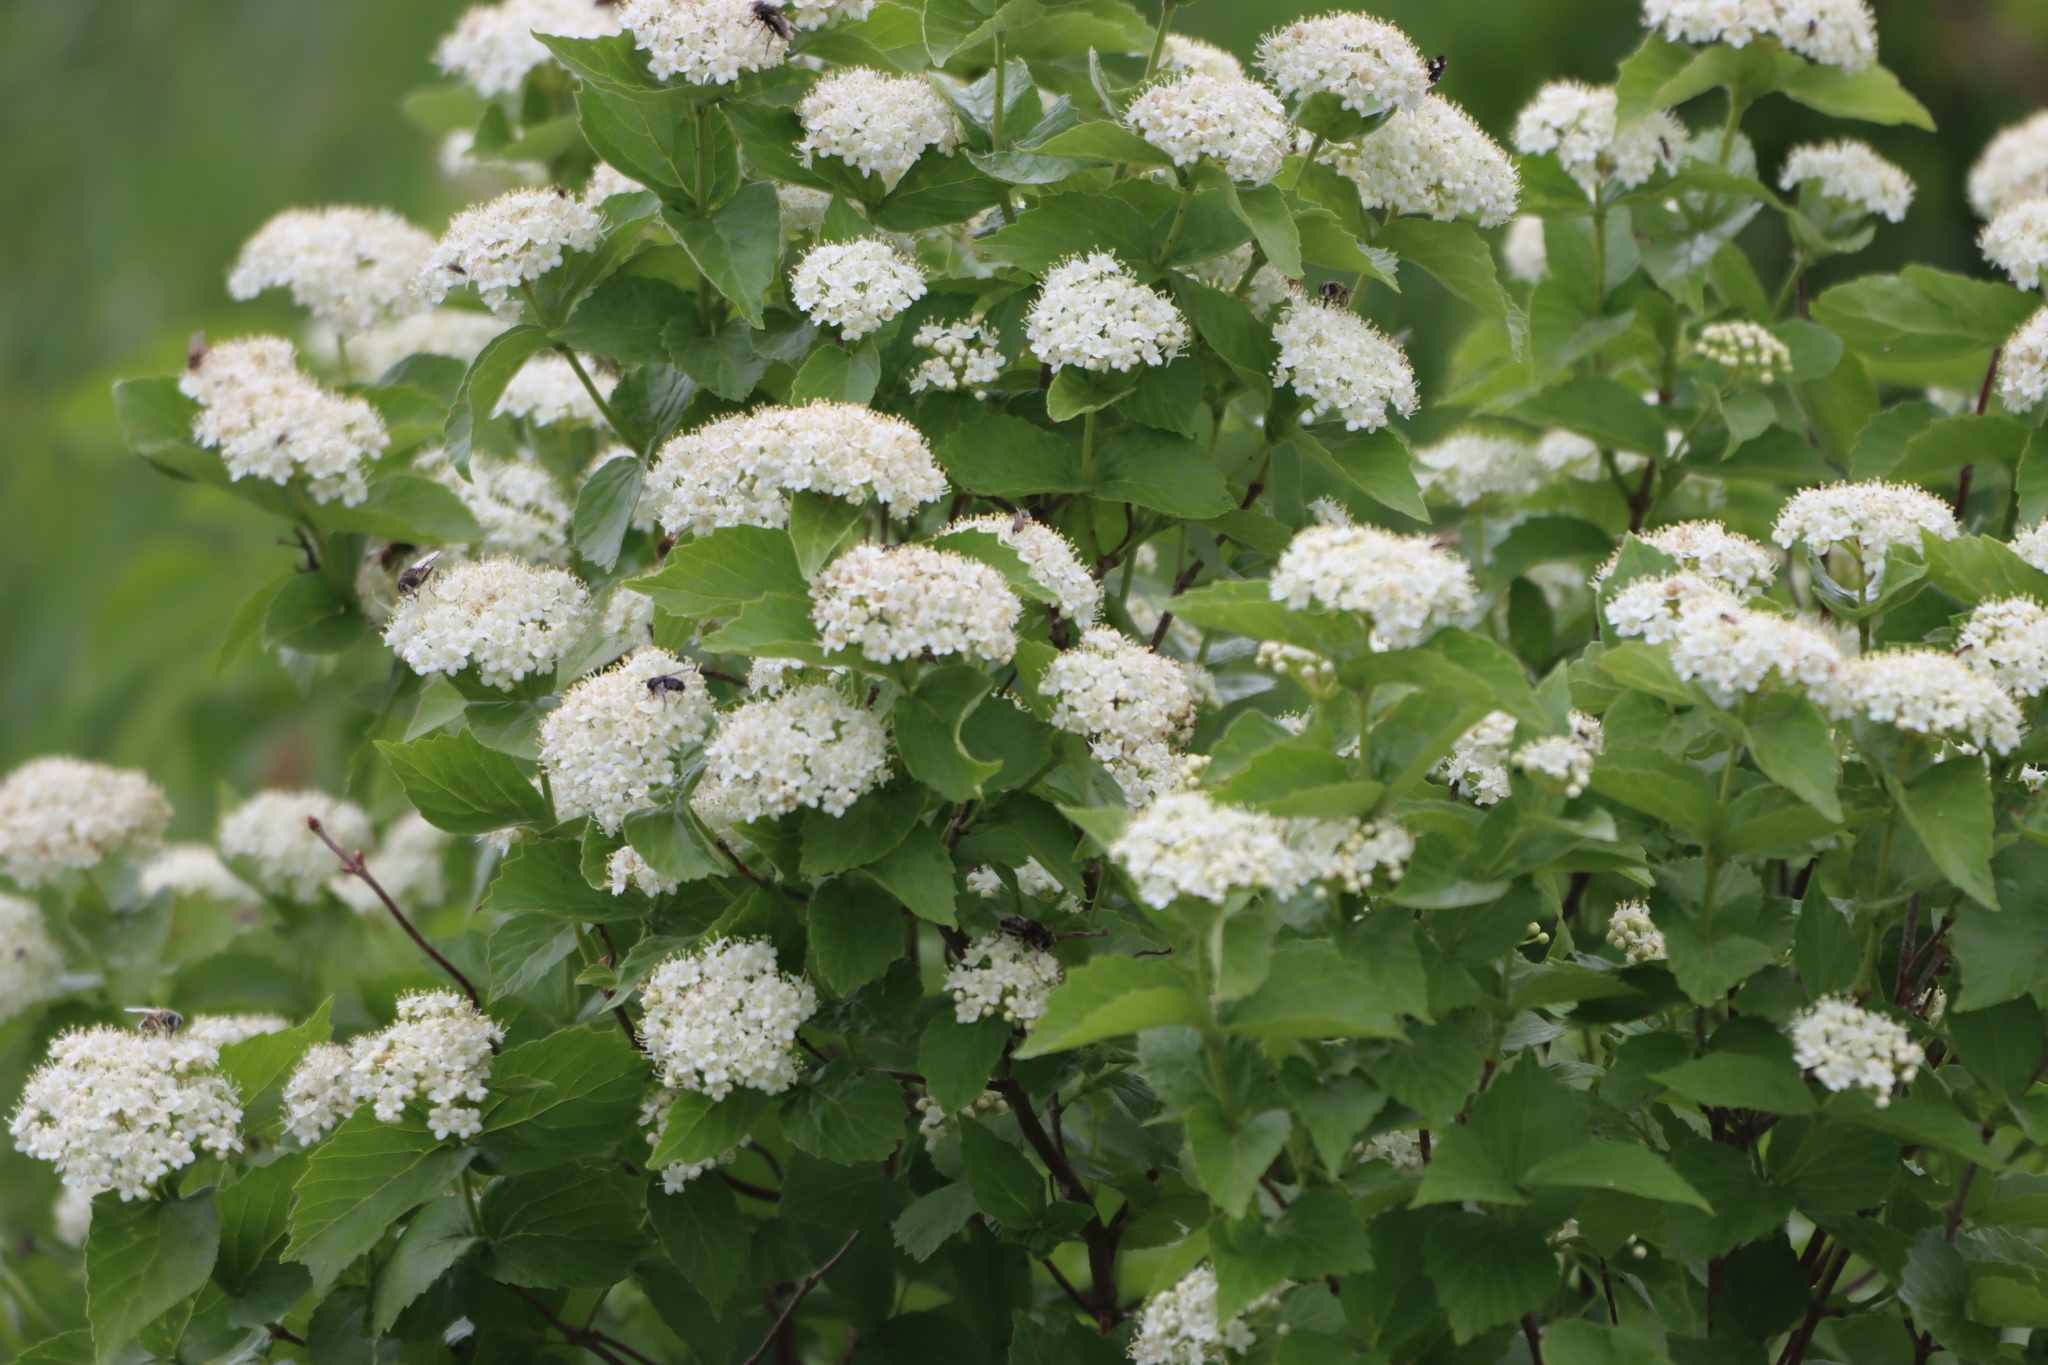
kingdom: Plantae
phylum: Tracheophyta
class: Magnoliopsida
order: Dipsacales
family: Viburnaceae
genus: Viburnum
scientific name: Viburnum rafinesqueanum
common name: Downy arrow-wood
